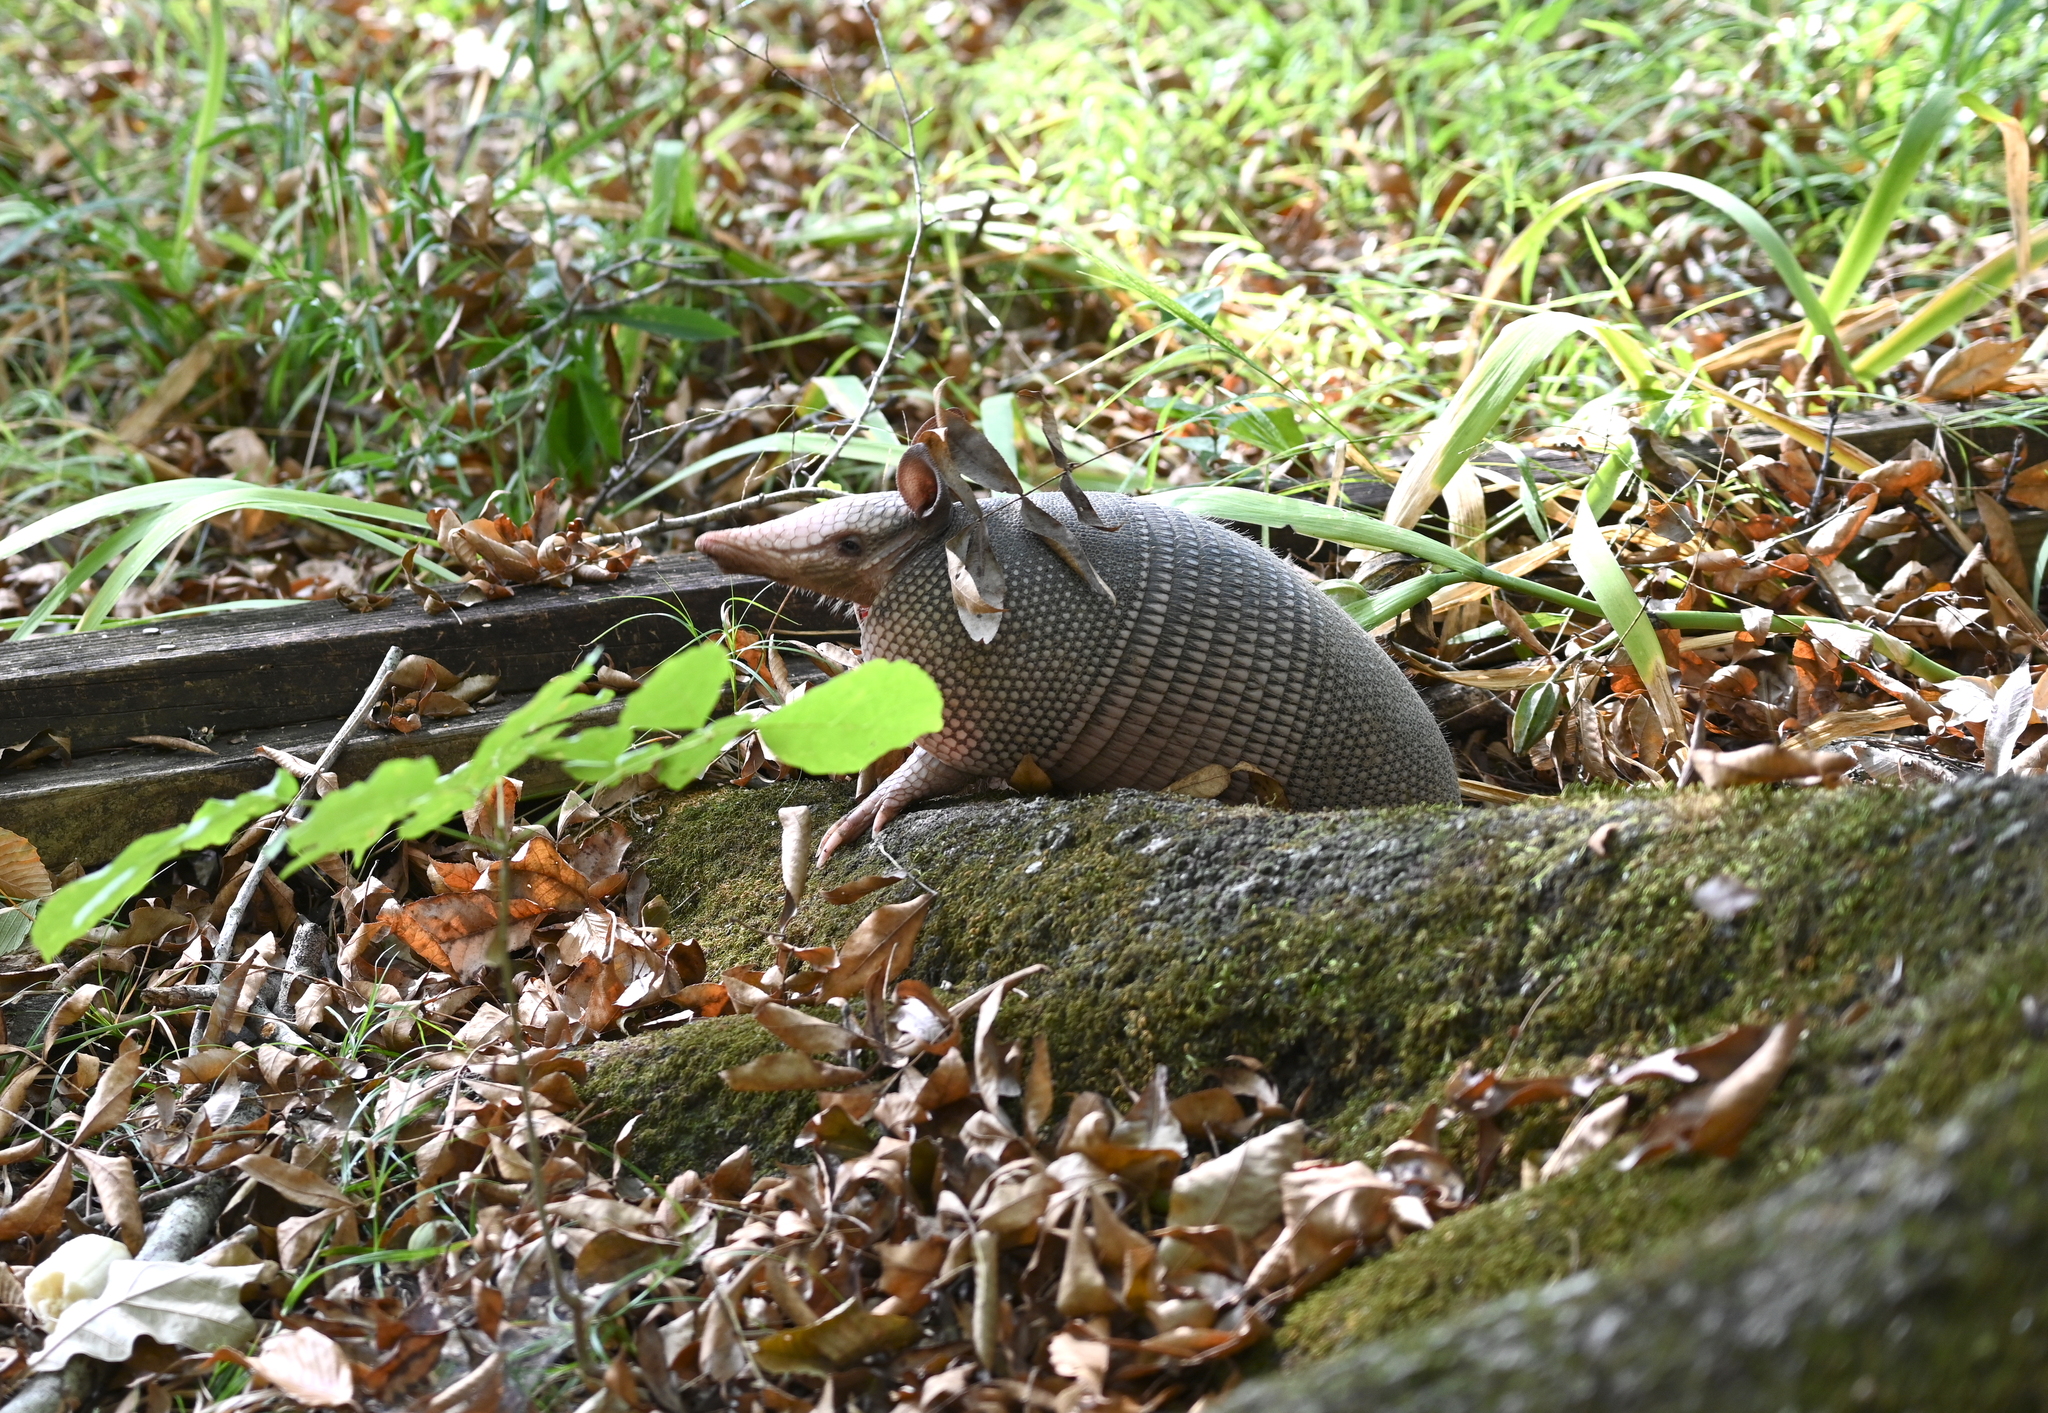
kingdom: Animalia
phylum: Chordata
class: Mammalia
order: Cingulata
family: Dasypodidae
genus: Dasypus
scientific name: Dasypus novemcinctus
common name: Nine-banded armadillo
